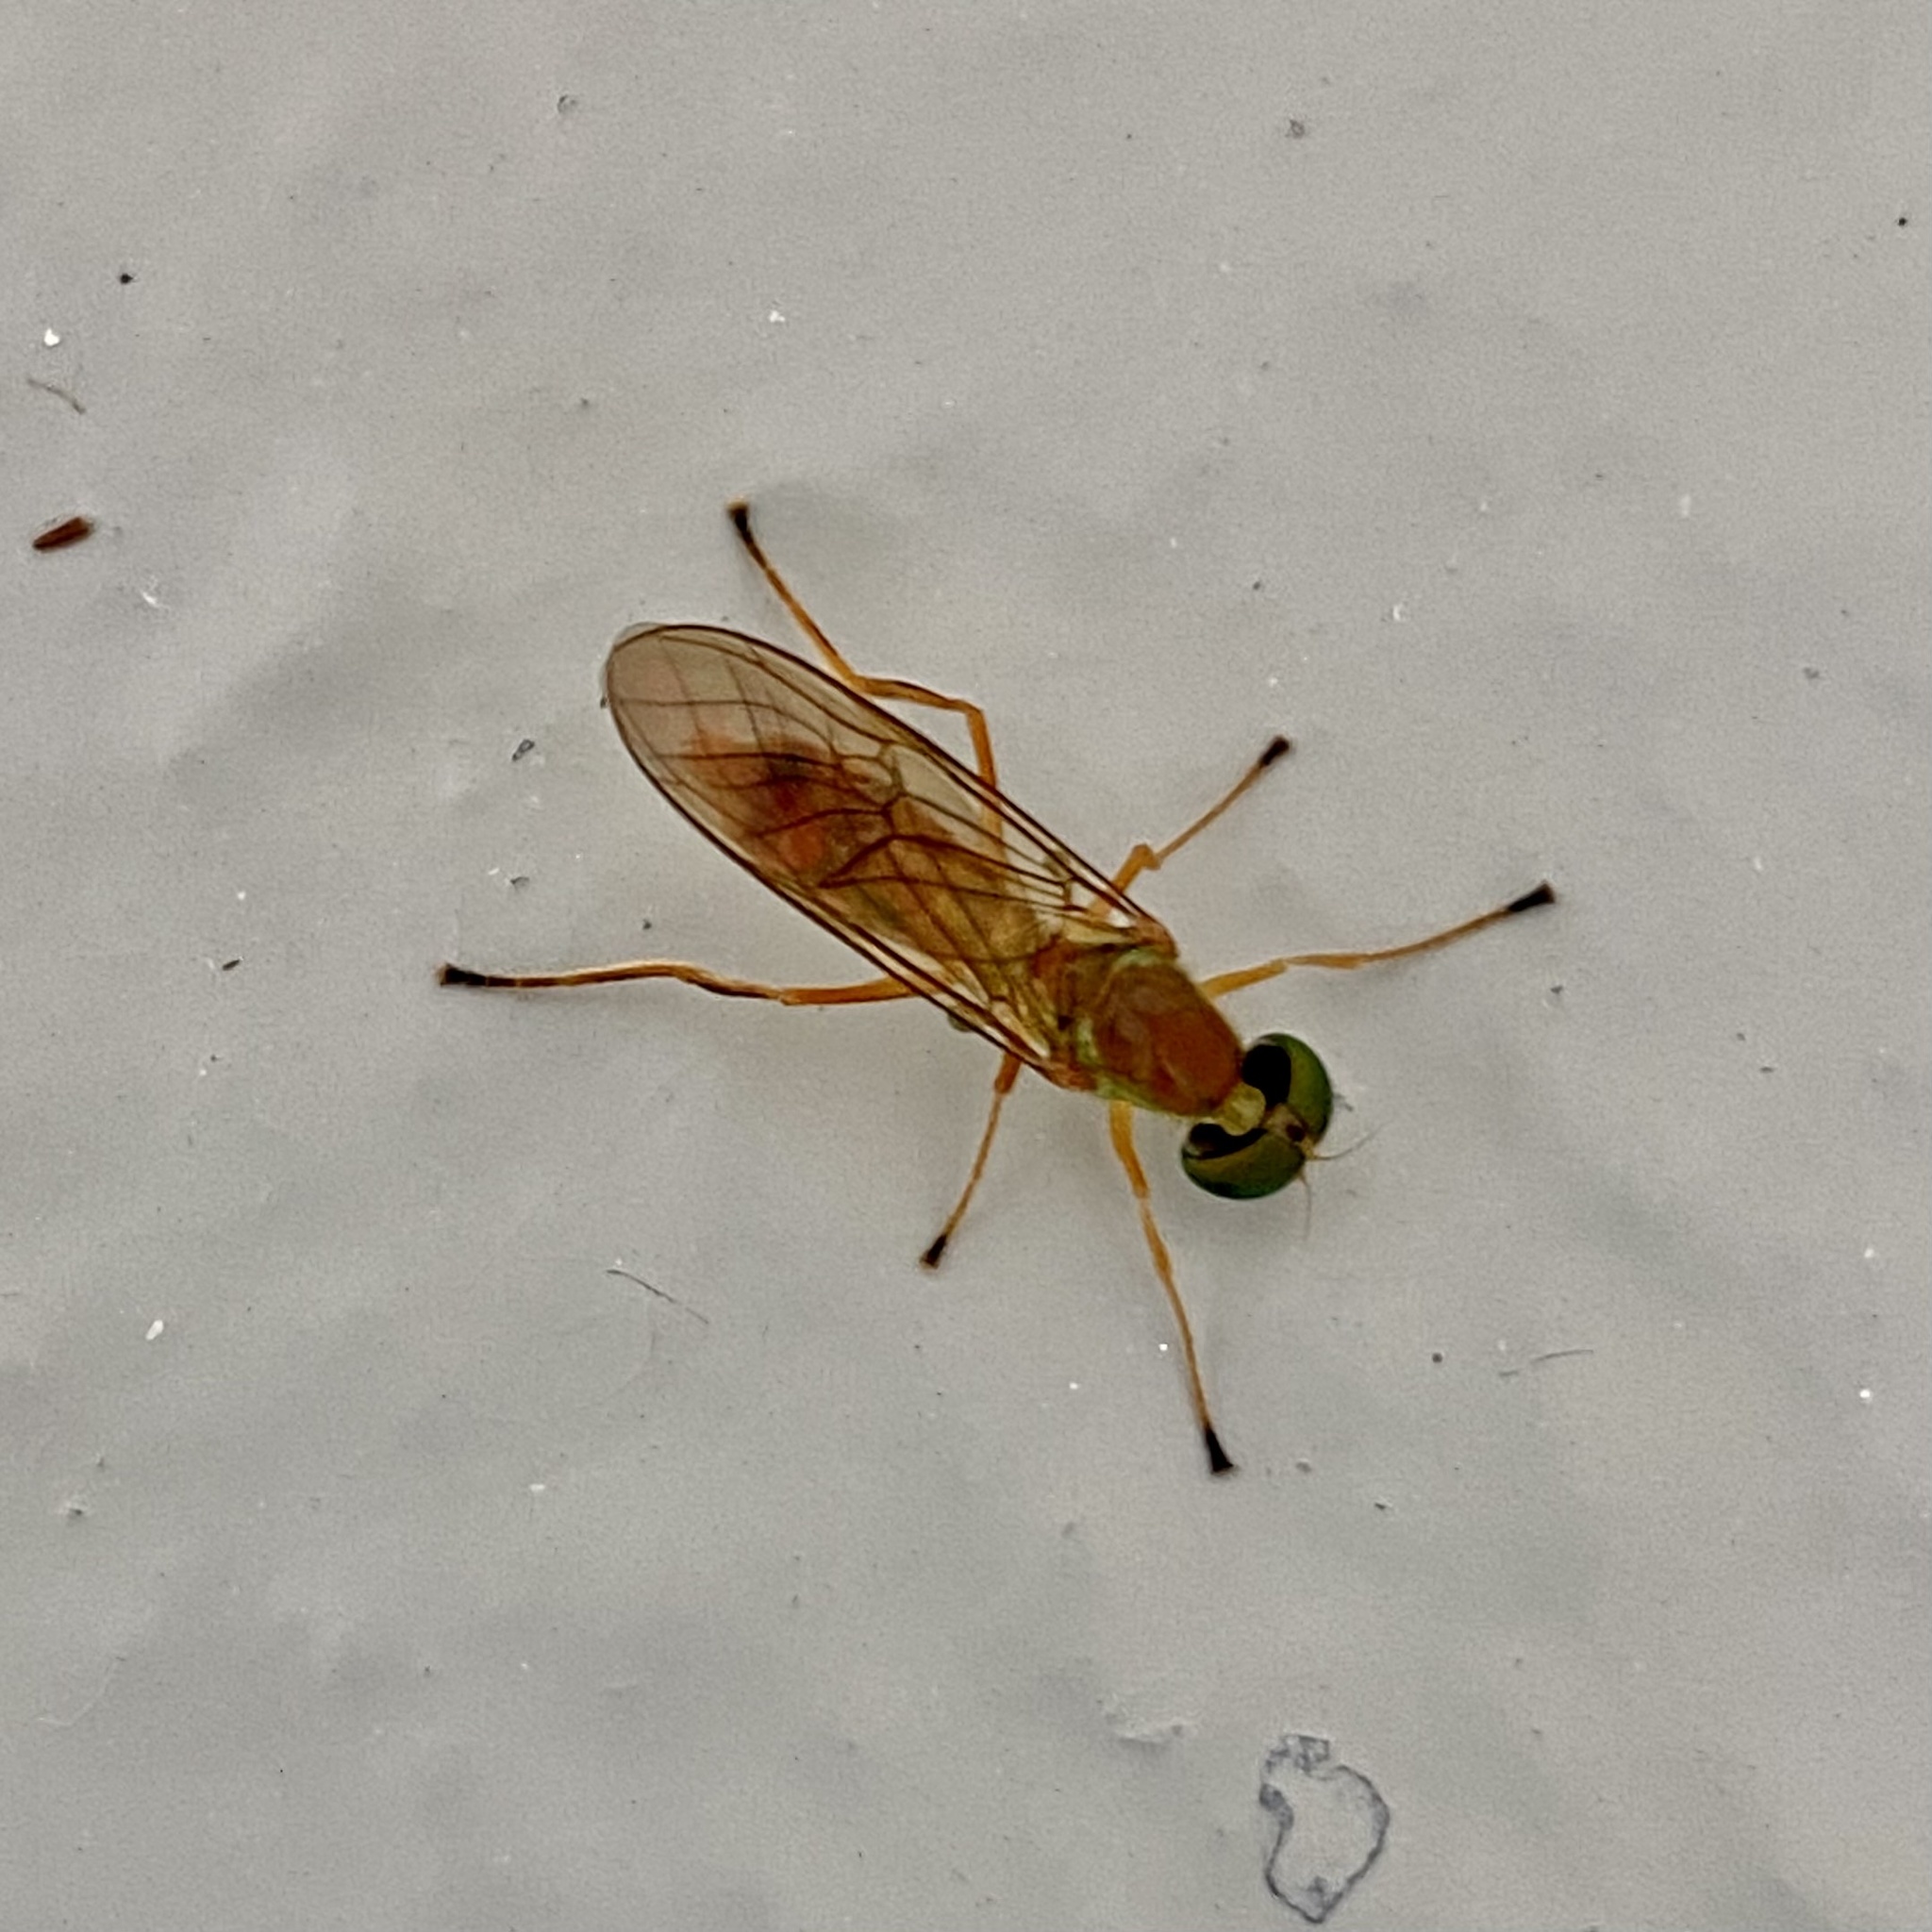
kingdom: Animalia
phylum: Arthropoda
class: Insecta
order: Diptera
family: Stratiomyidae
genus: Ptecticus
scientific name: Ptecticus trivittatus
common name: Compost fly
